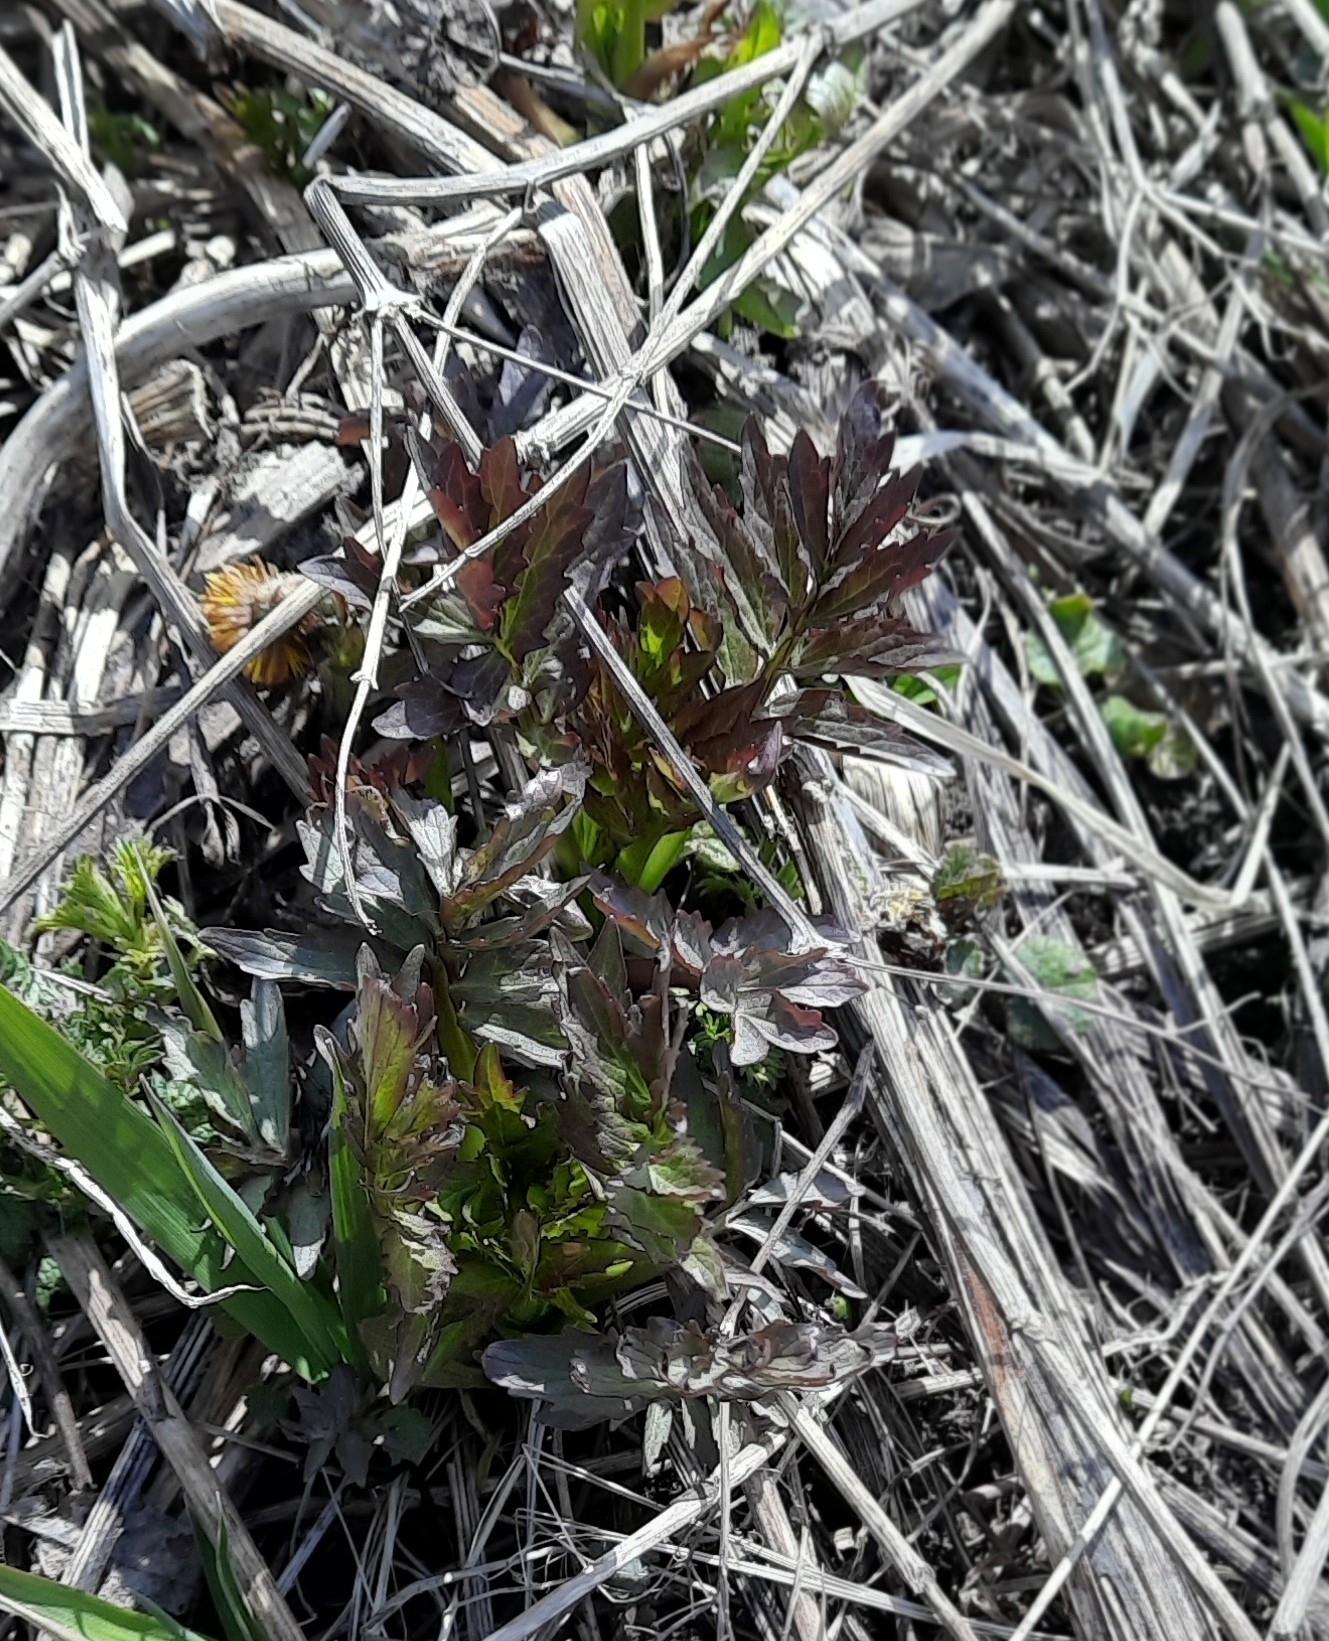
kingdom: Plantae
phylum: Tracheophyta
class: Magnoliopsida
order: Dipsacales
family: Caprifoliaceae
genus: Valeriana
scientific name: Valeriana wolgensis
